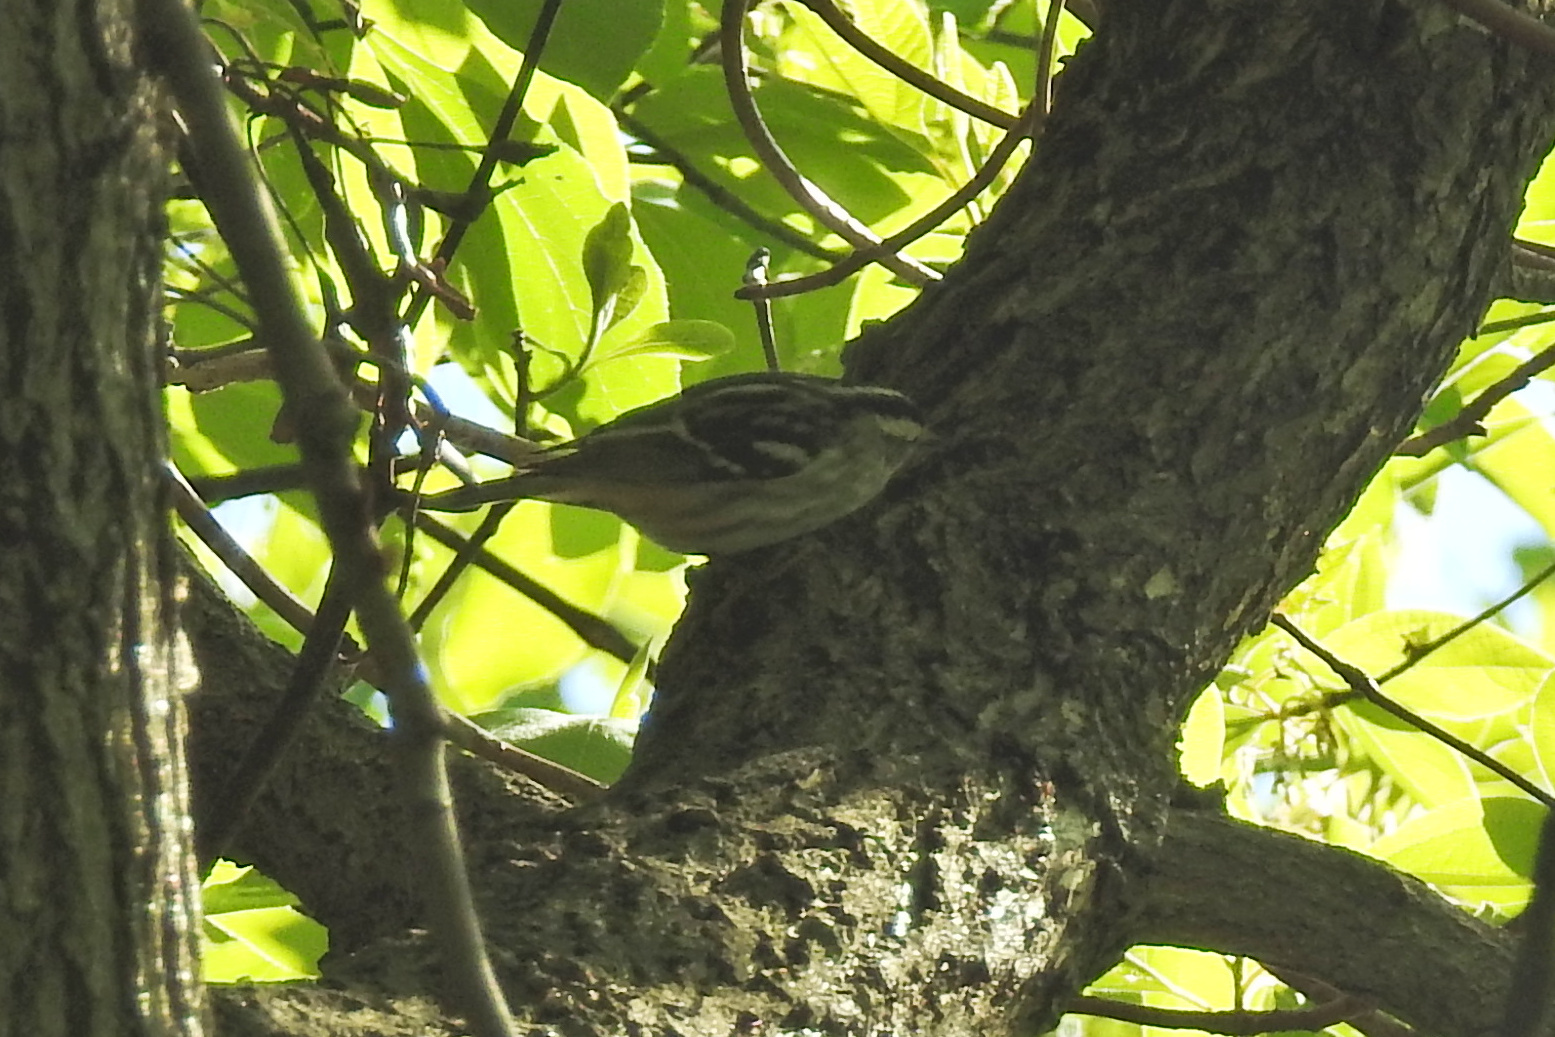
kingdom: Animalia
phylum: Chordata
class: Aves
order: Passeriformes
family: Parulidae
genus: Mniotilta
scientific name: Mniotilta varia
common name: Black-and-white warbler
